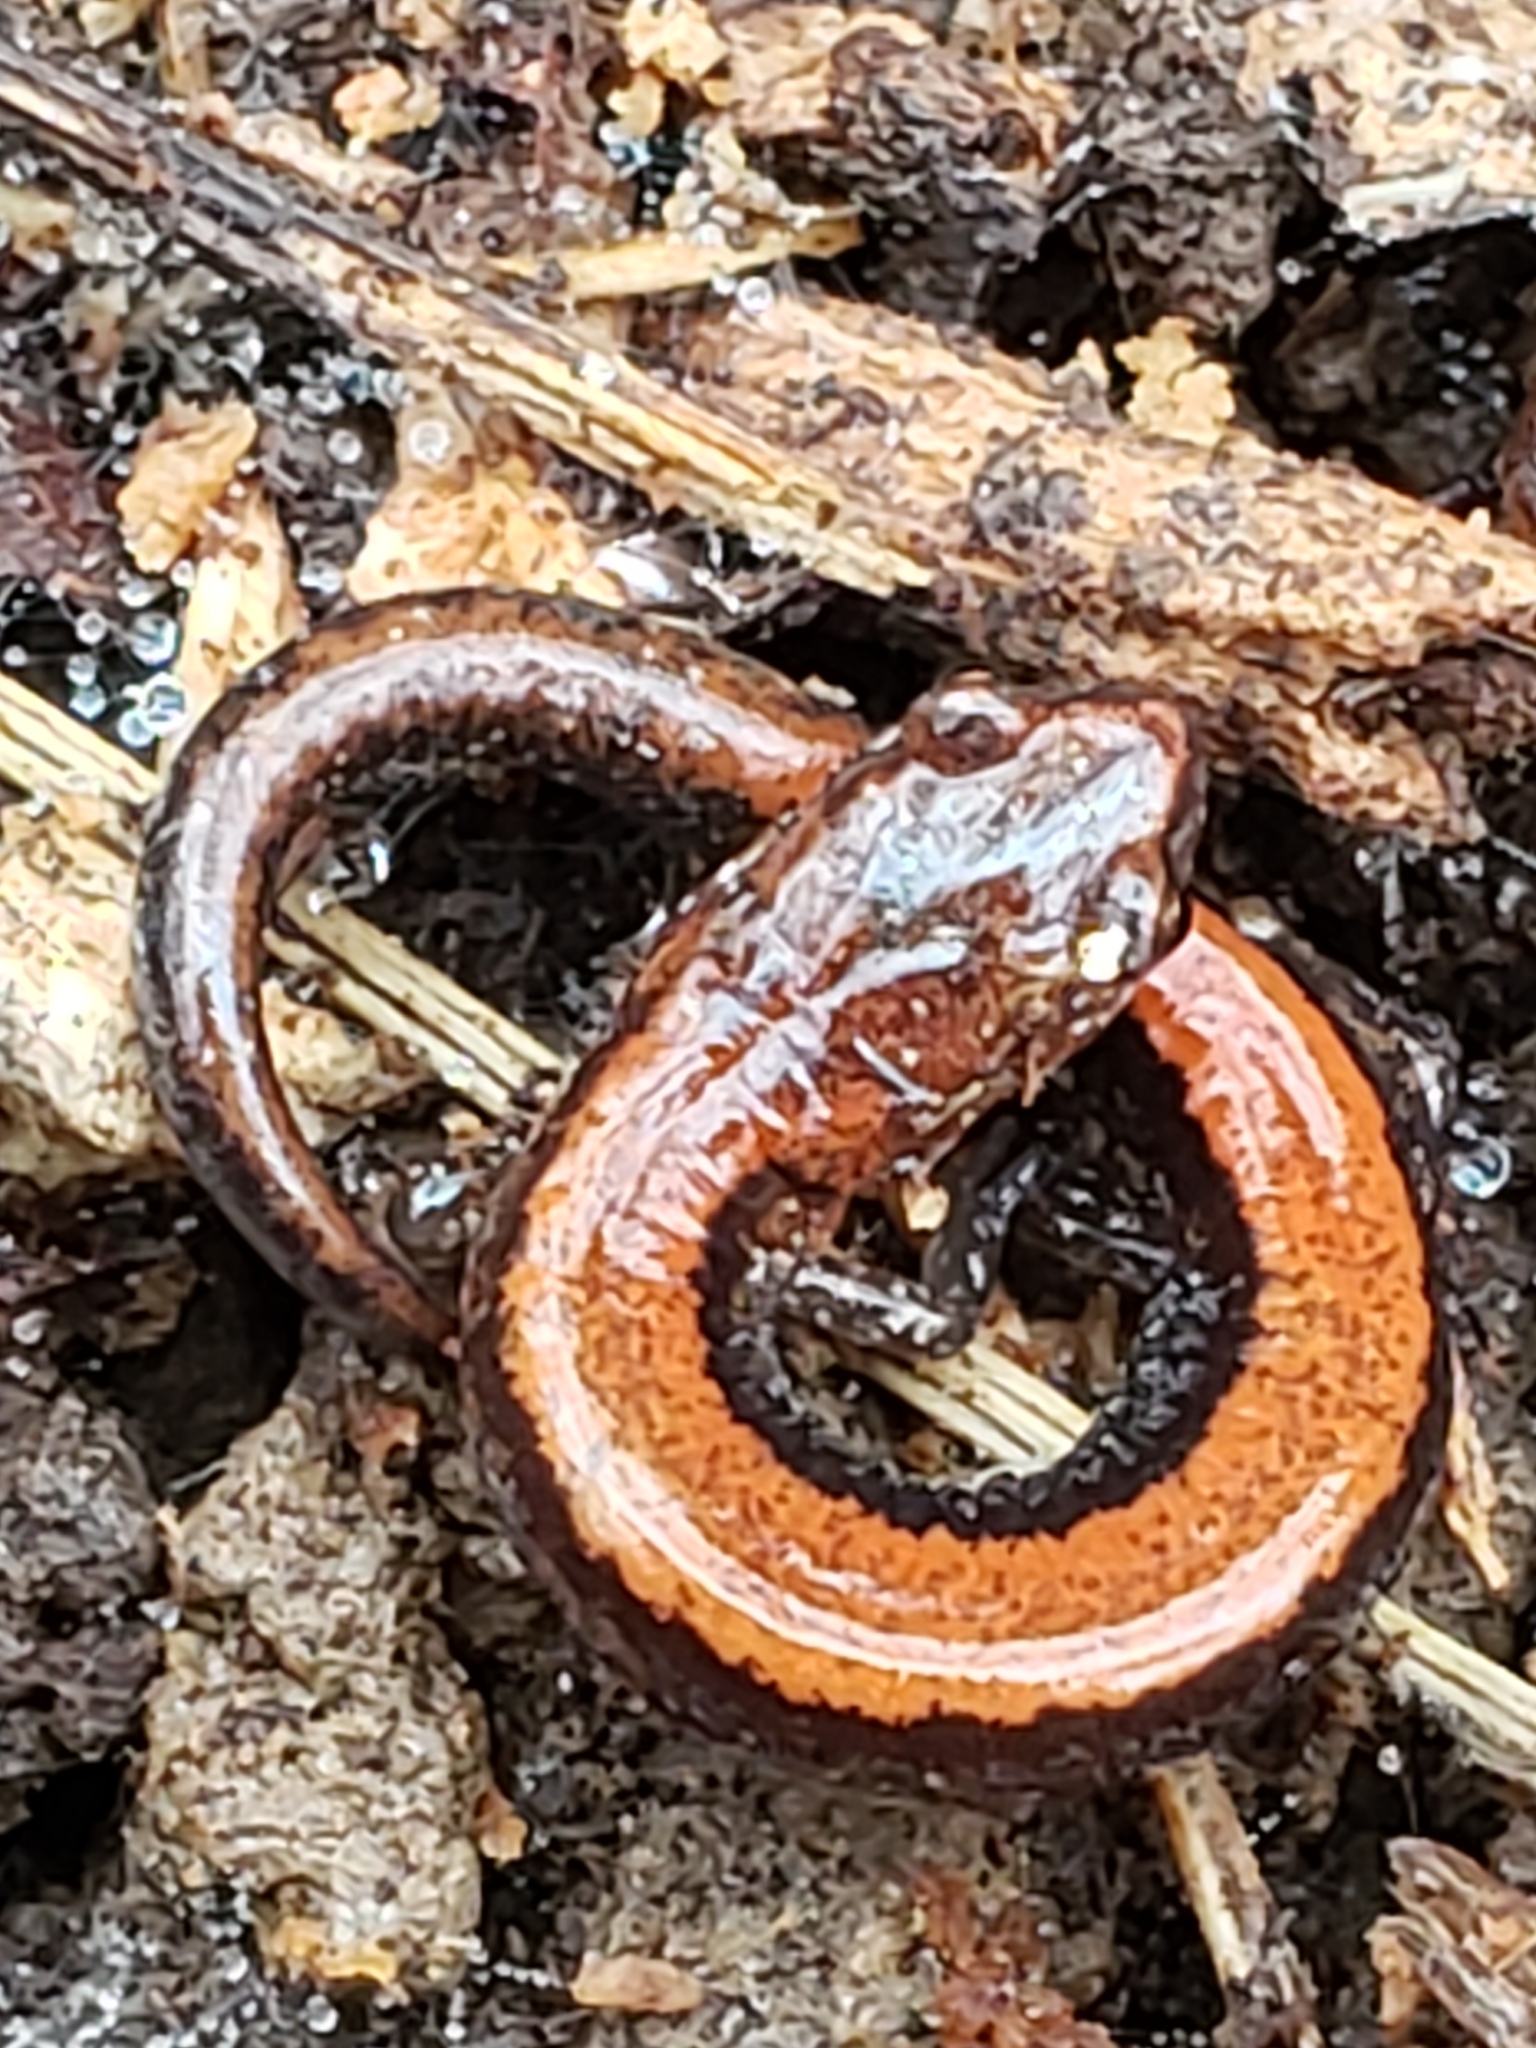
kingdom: Animalia
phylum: Chordata
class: Amphibia
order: Caudata
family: Plethodontidae
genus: Plethodon
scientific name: Plethodon cinereus
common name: Redback salamander
